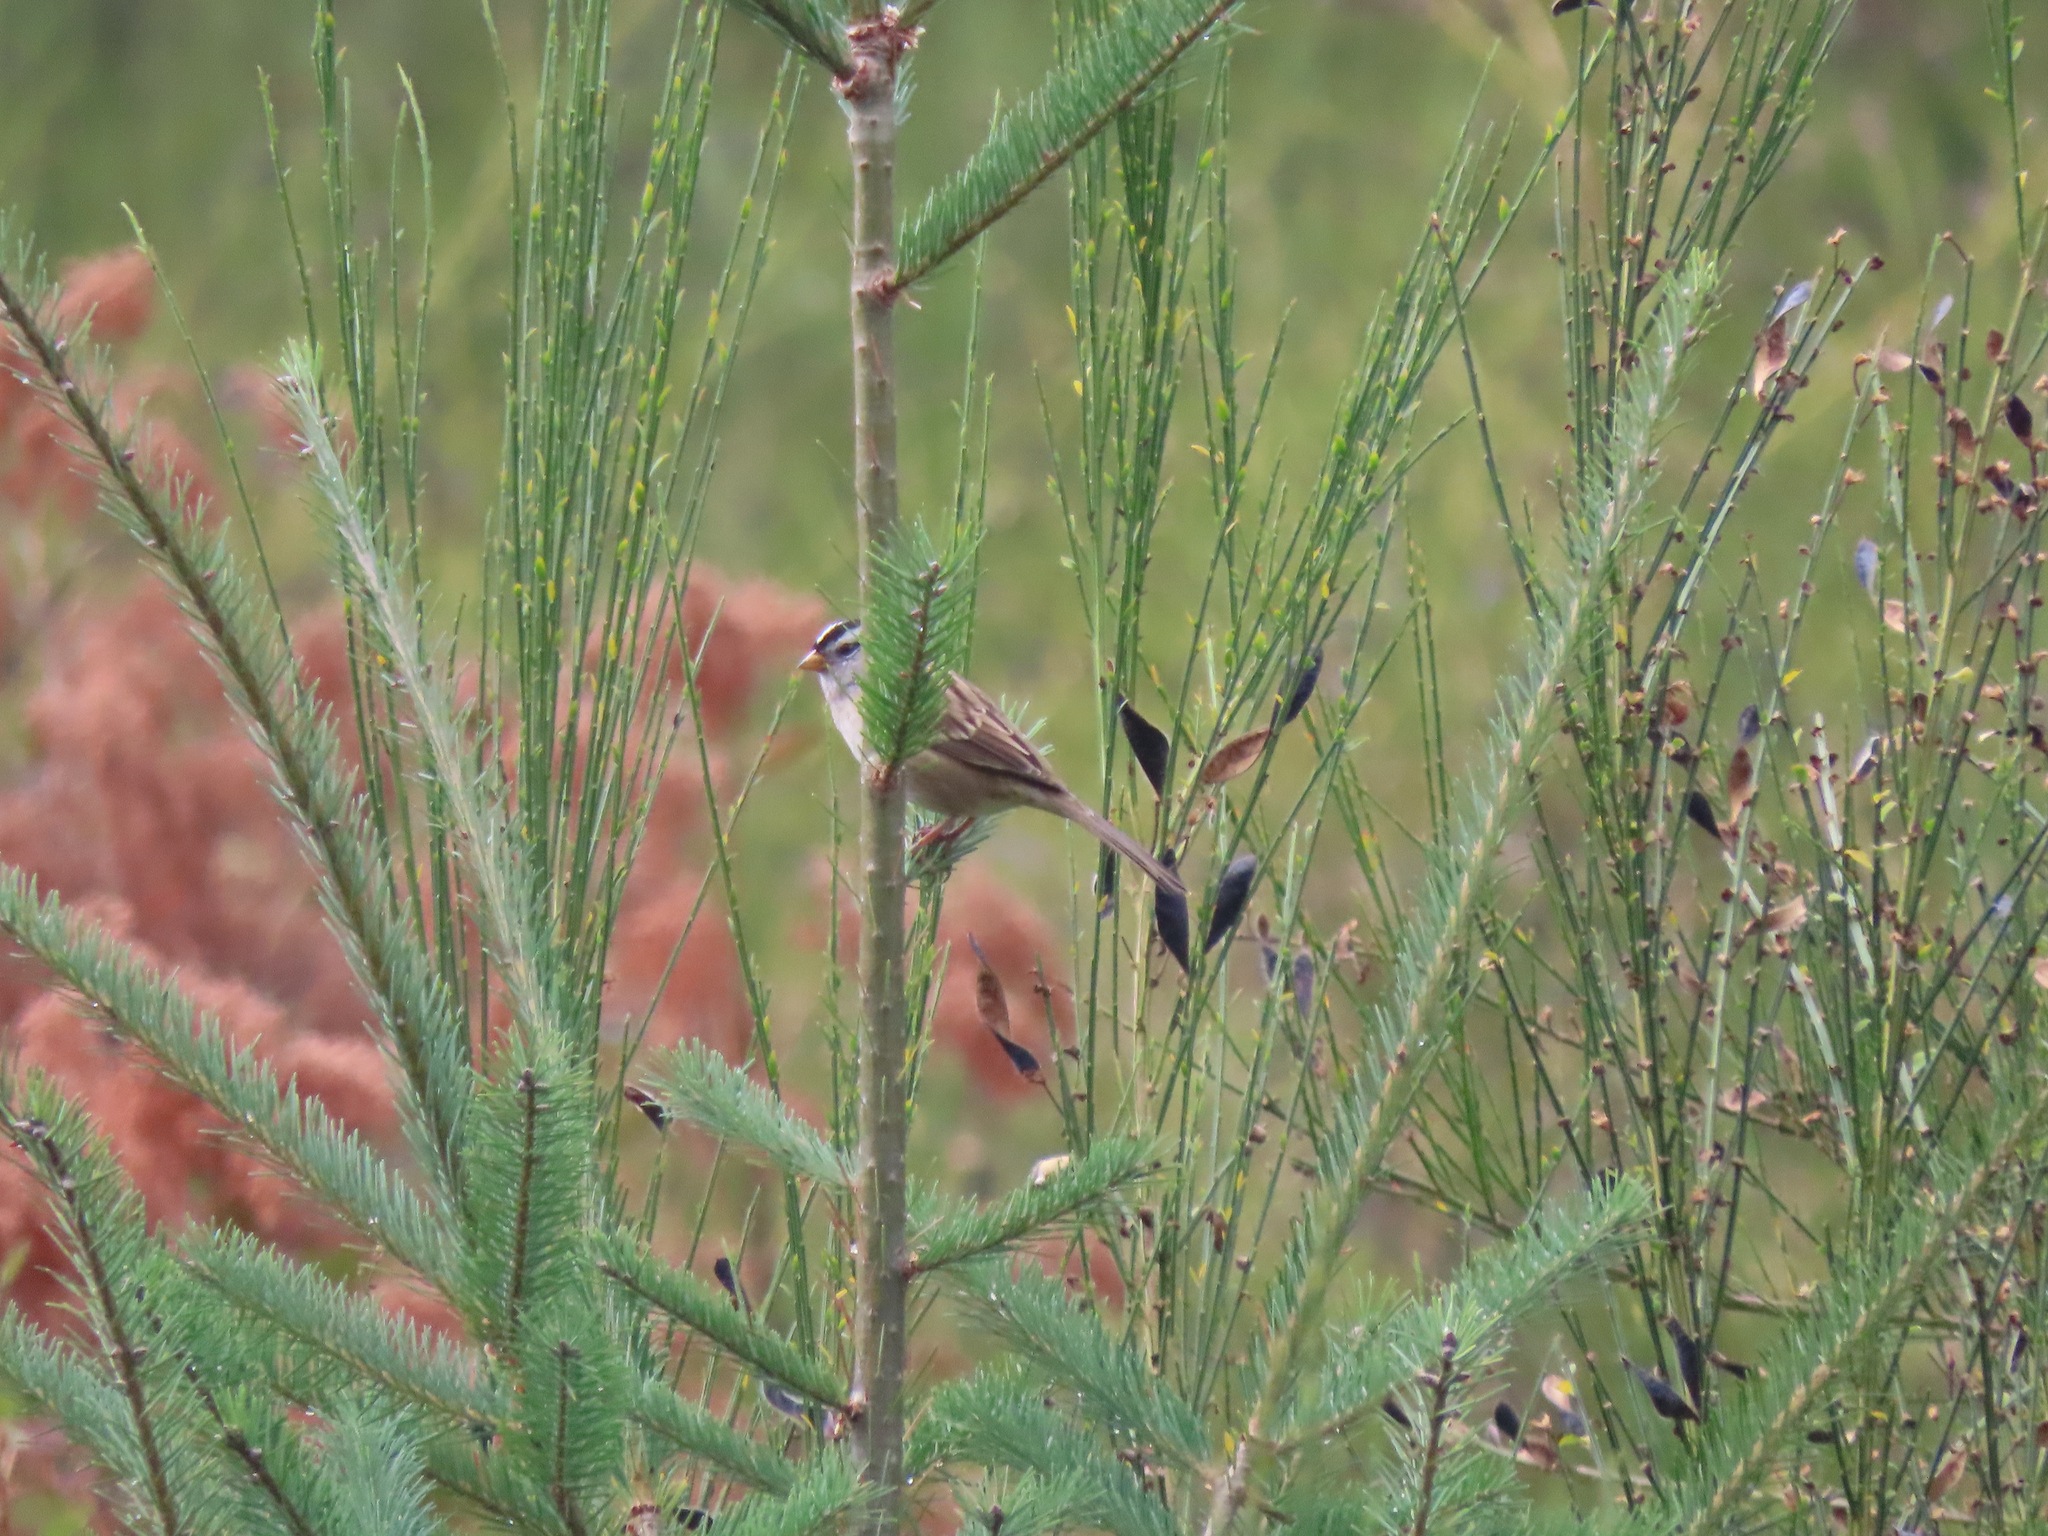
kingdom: Animalia
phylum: Chordata
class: Aves
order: Passeriformes
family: Passerellidae
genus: Zonotrichia
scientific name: Zonotrichia leucophrys
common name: White-crowned sparrow
